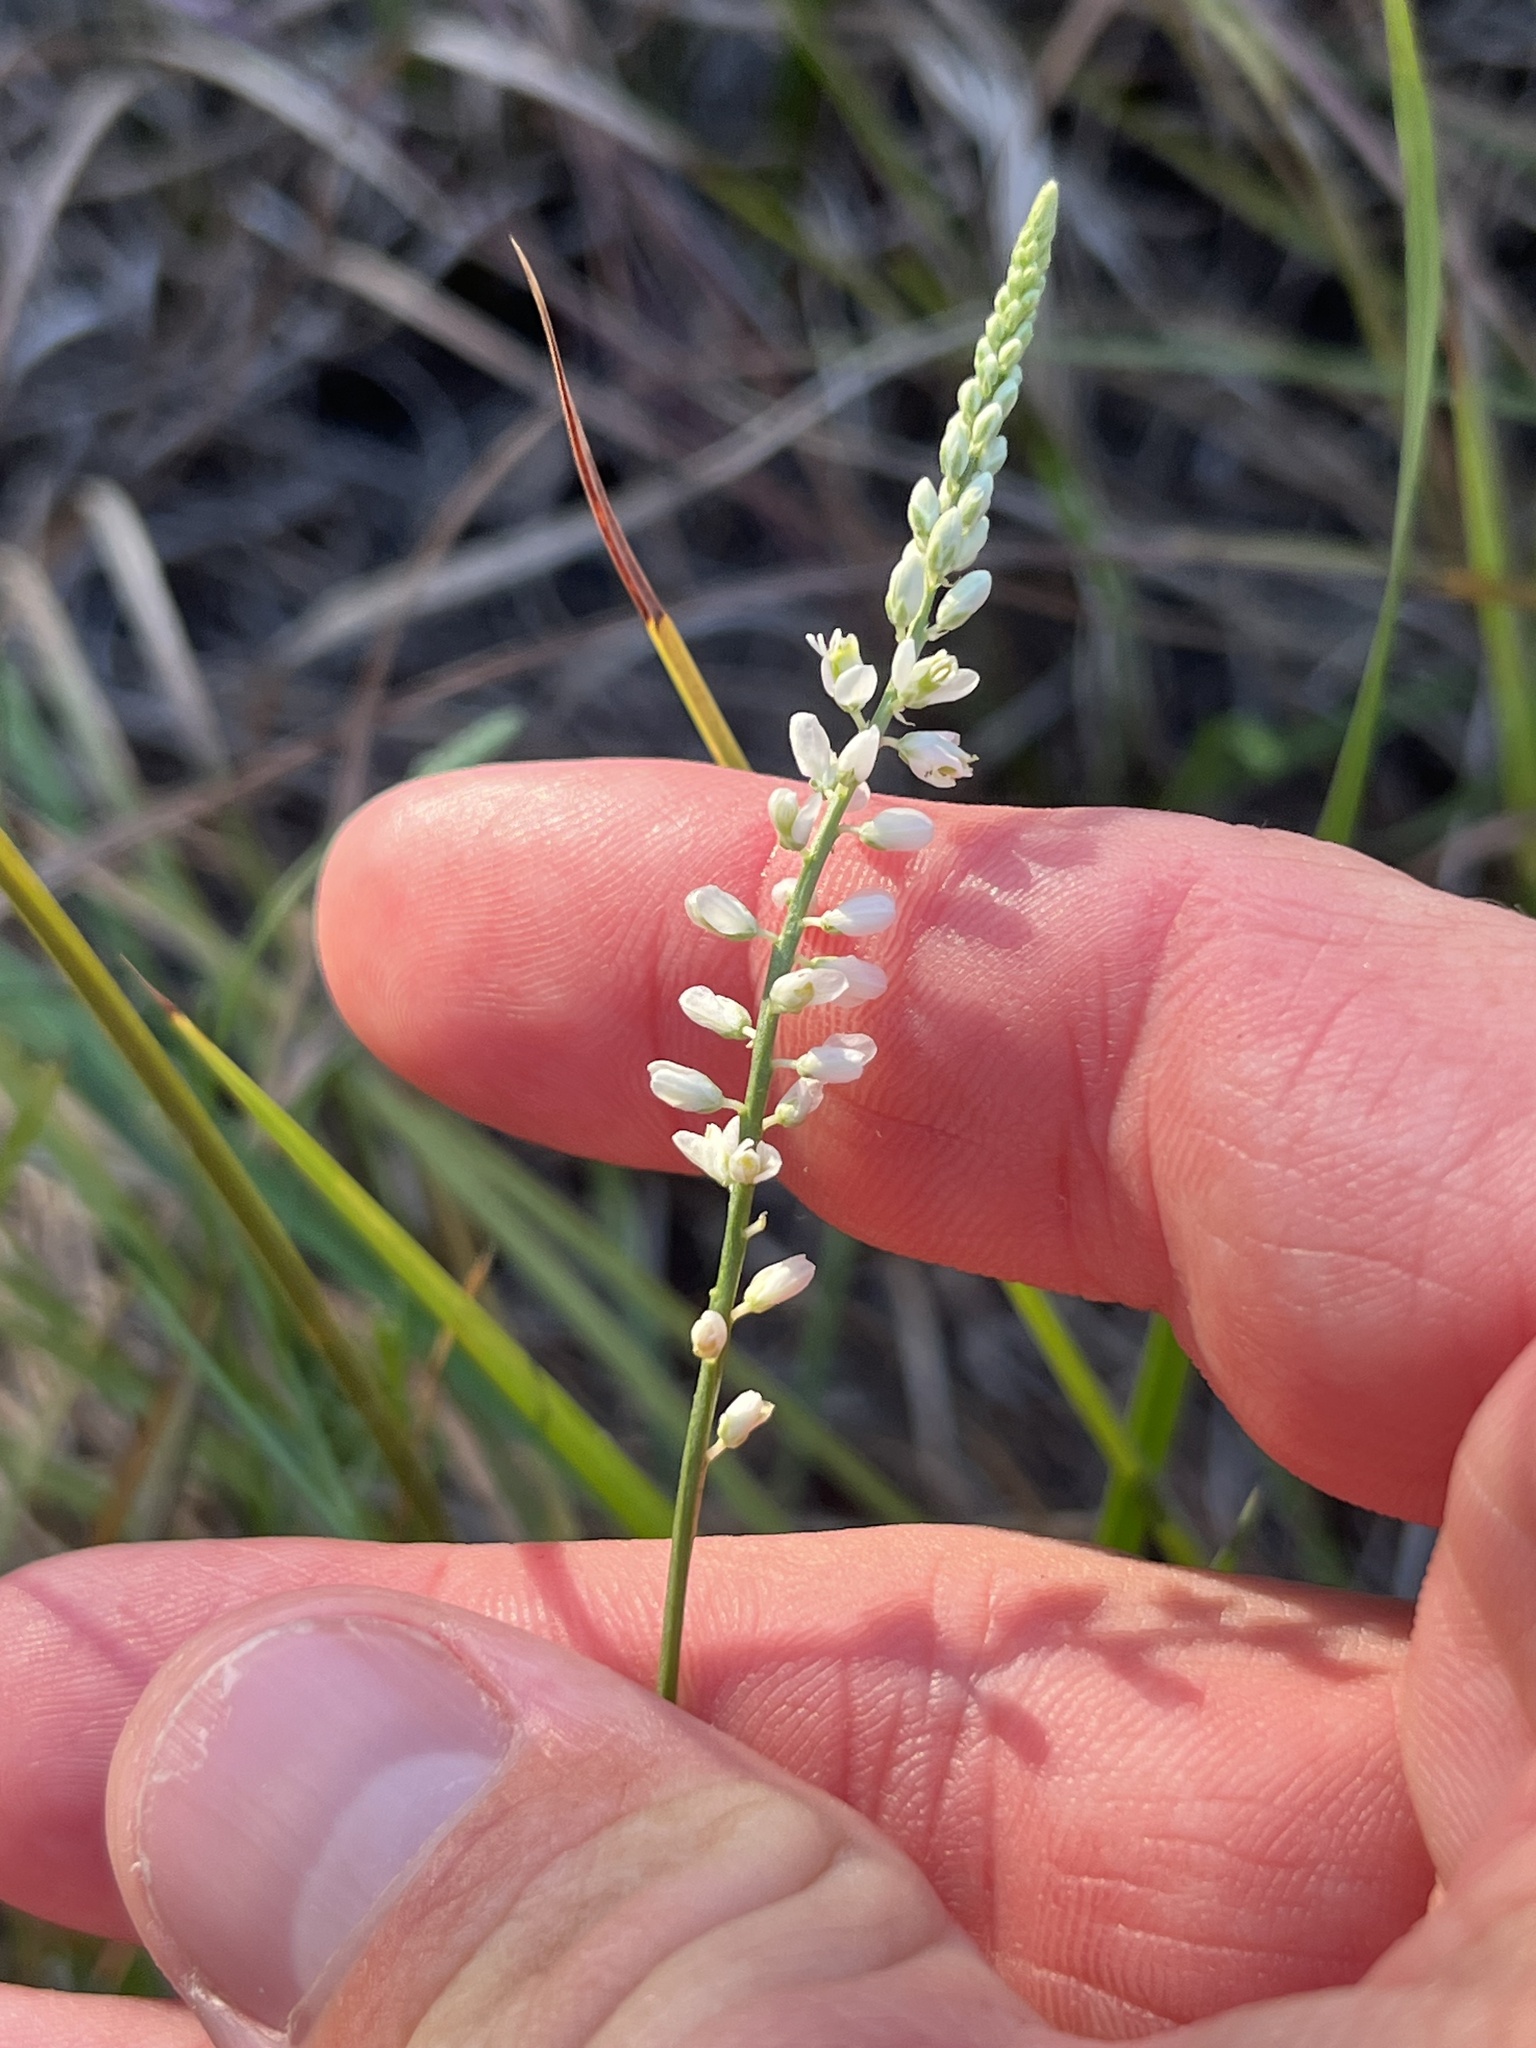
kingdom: Plantae
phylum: Tracheophyta
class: Magnoliopsida
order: Fabales
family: Polygalaceae
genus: Polygala
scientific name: Polygala alba
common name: White milkwort
